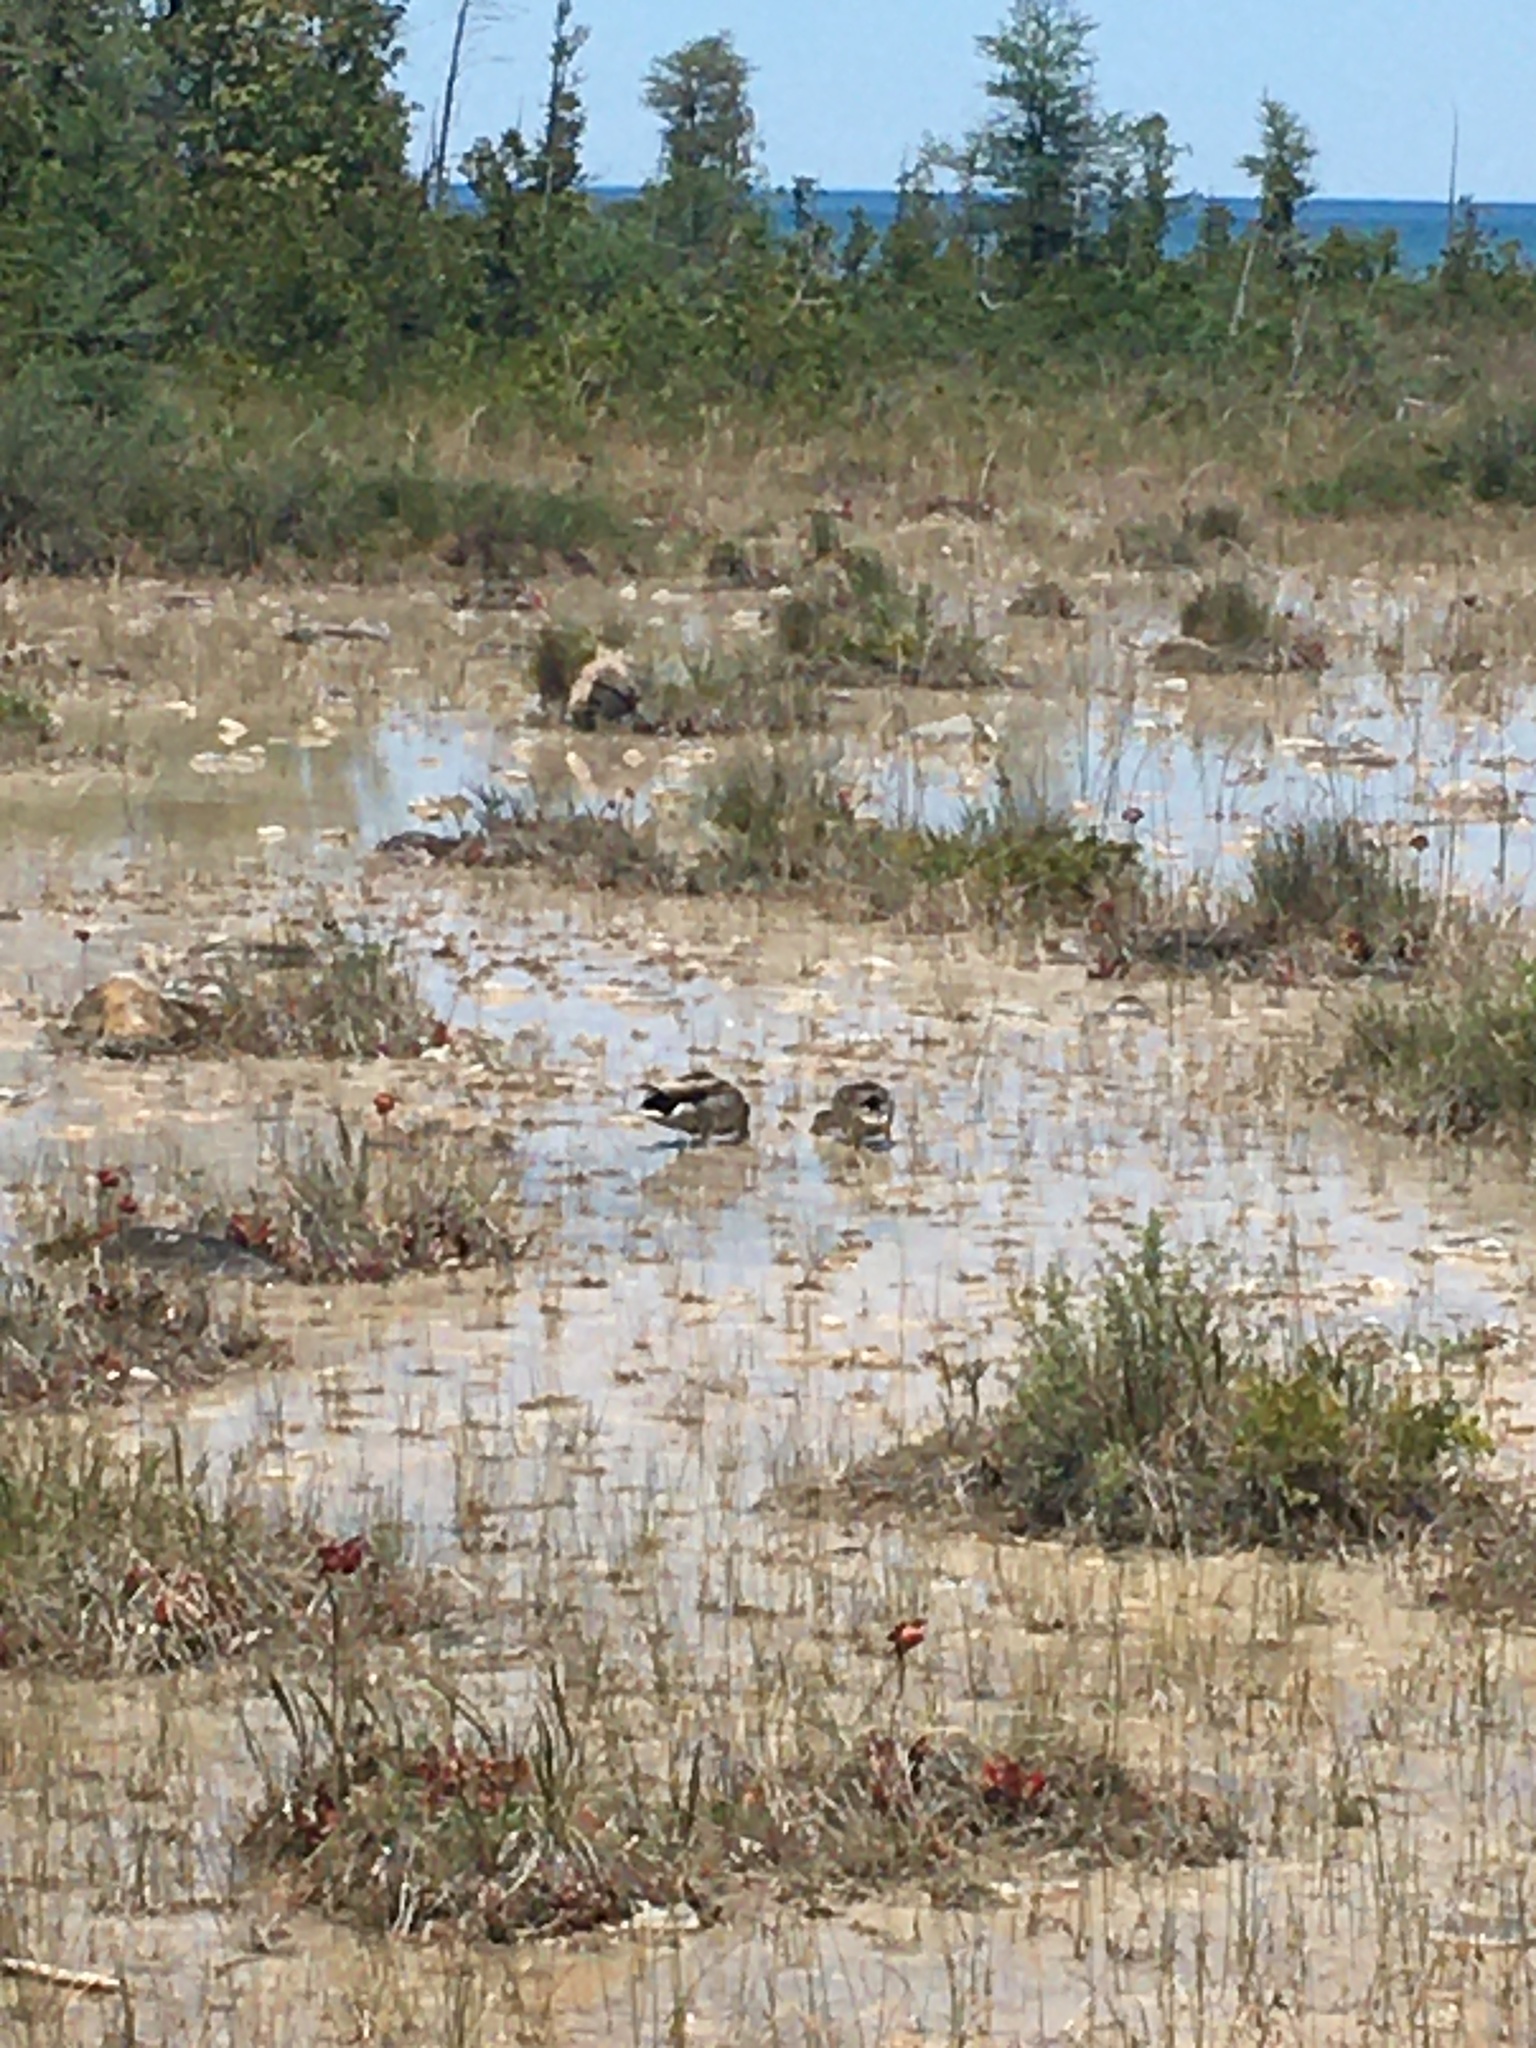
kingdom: Animalia
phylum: Chordata
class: Aves
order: Anseriformes
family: Anatidae
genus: Anas
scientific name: Anas platyrhynchos
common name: Mallard
